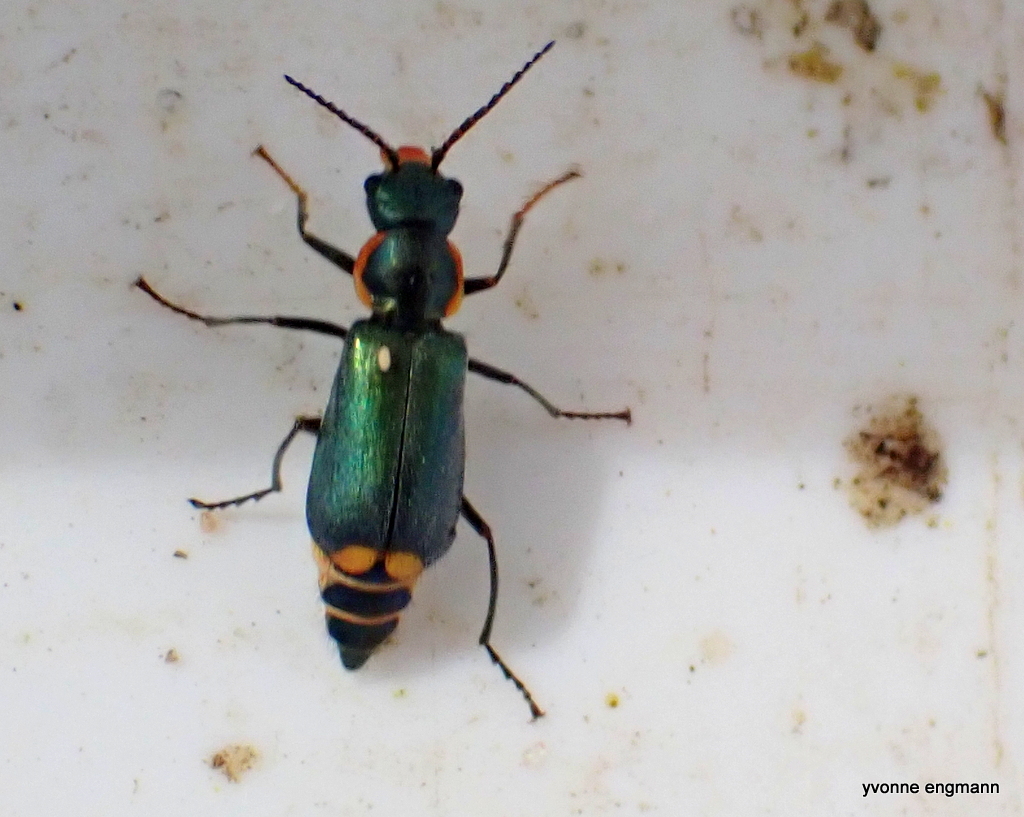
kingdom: Animalia
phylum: Arthropoda
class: Insecta
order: Coleoptera
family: Malachiidae
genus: Clanoptilus
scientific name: Clanoptilus marginellus
